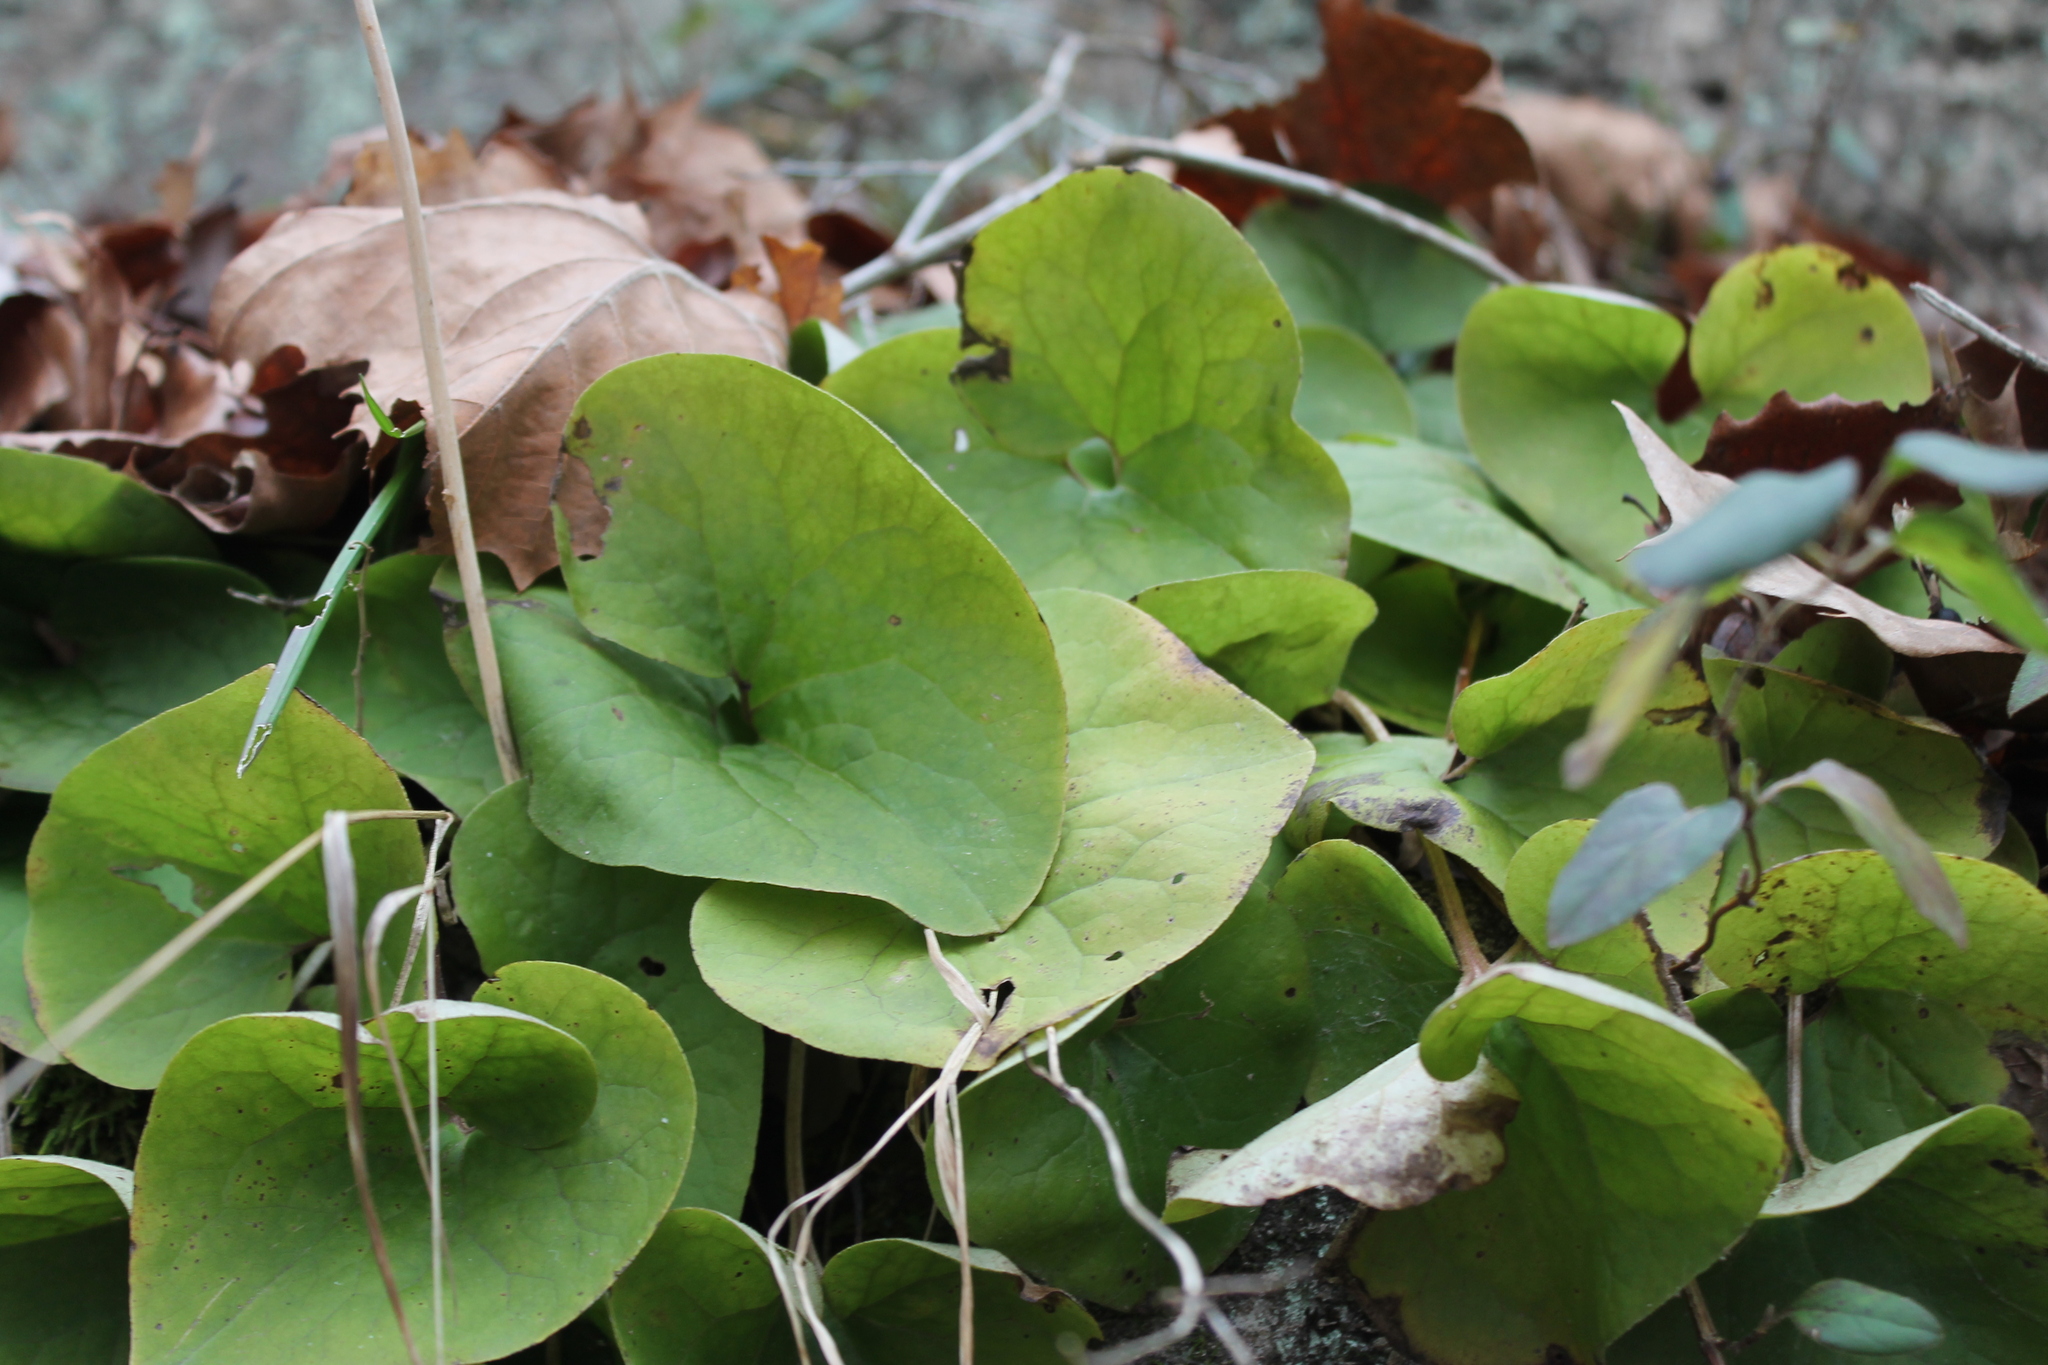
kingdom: Plantae
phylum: Tracheophyta
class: Magnoliopsida
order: Piperales
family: Aristolochiaceae
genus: Asarum
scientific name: Asarum canadense
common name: Wild ginger
